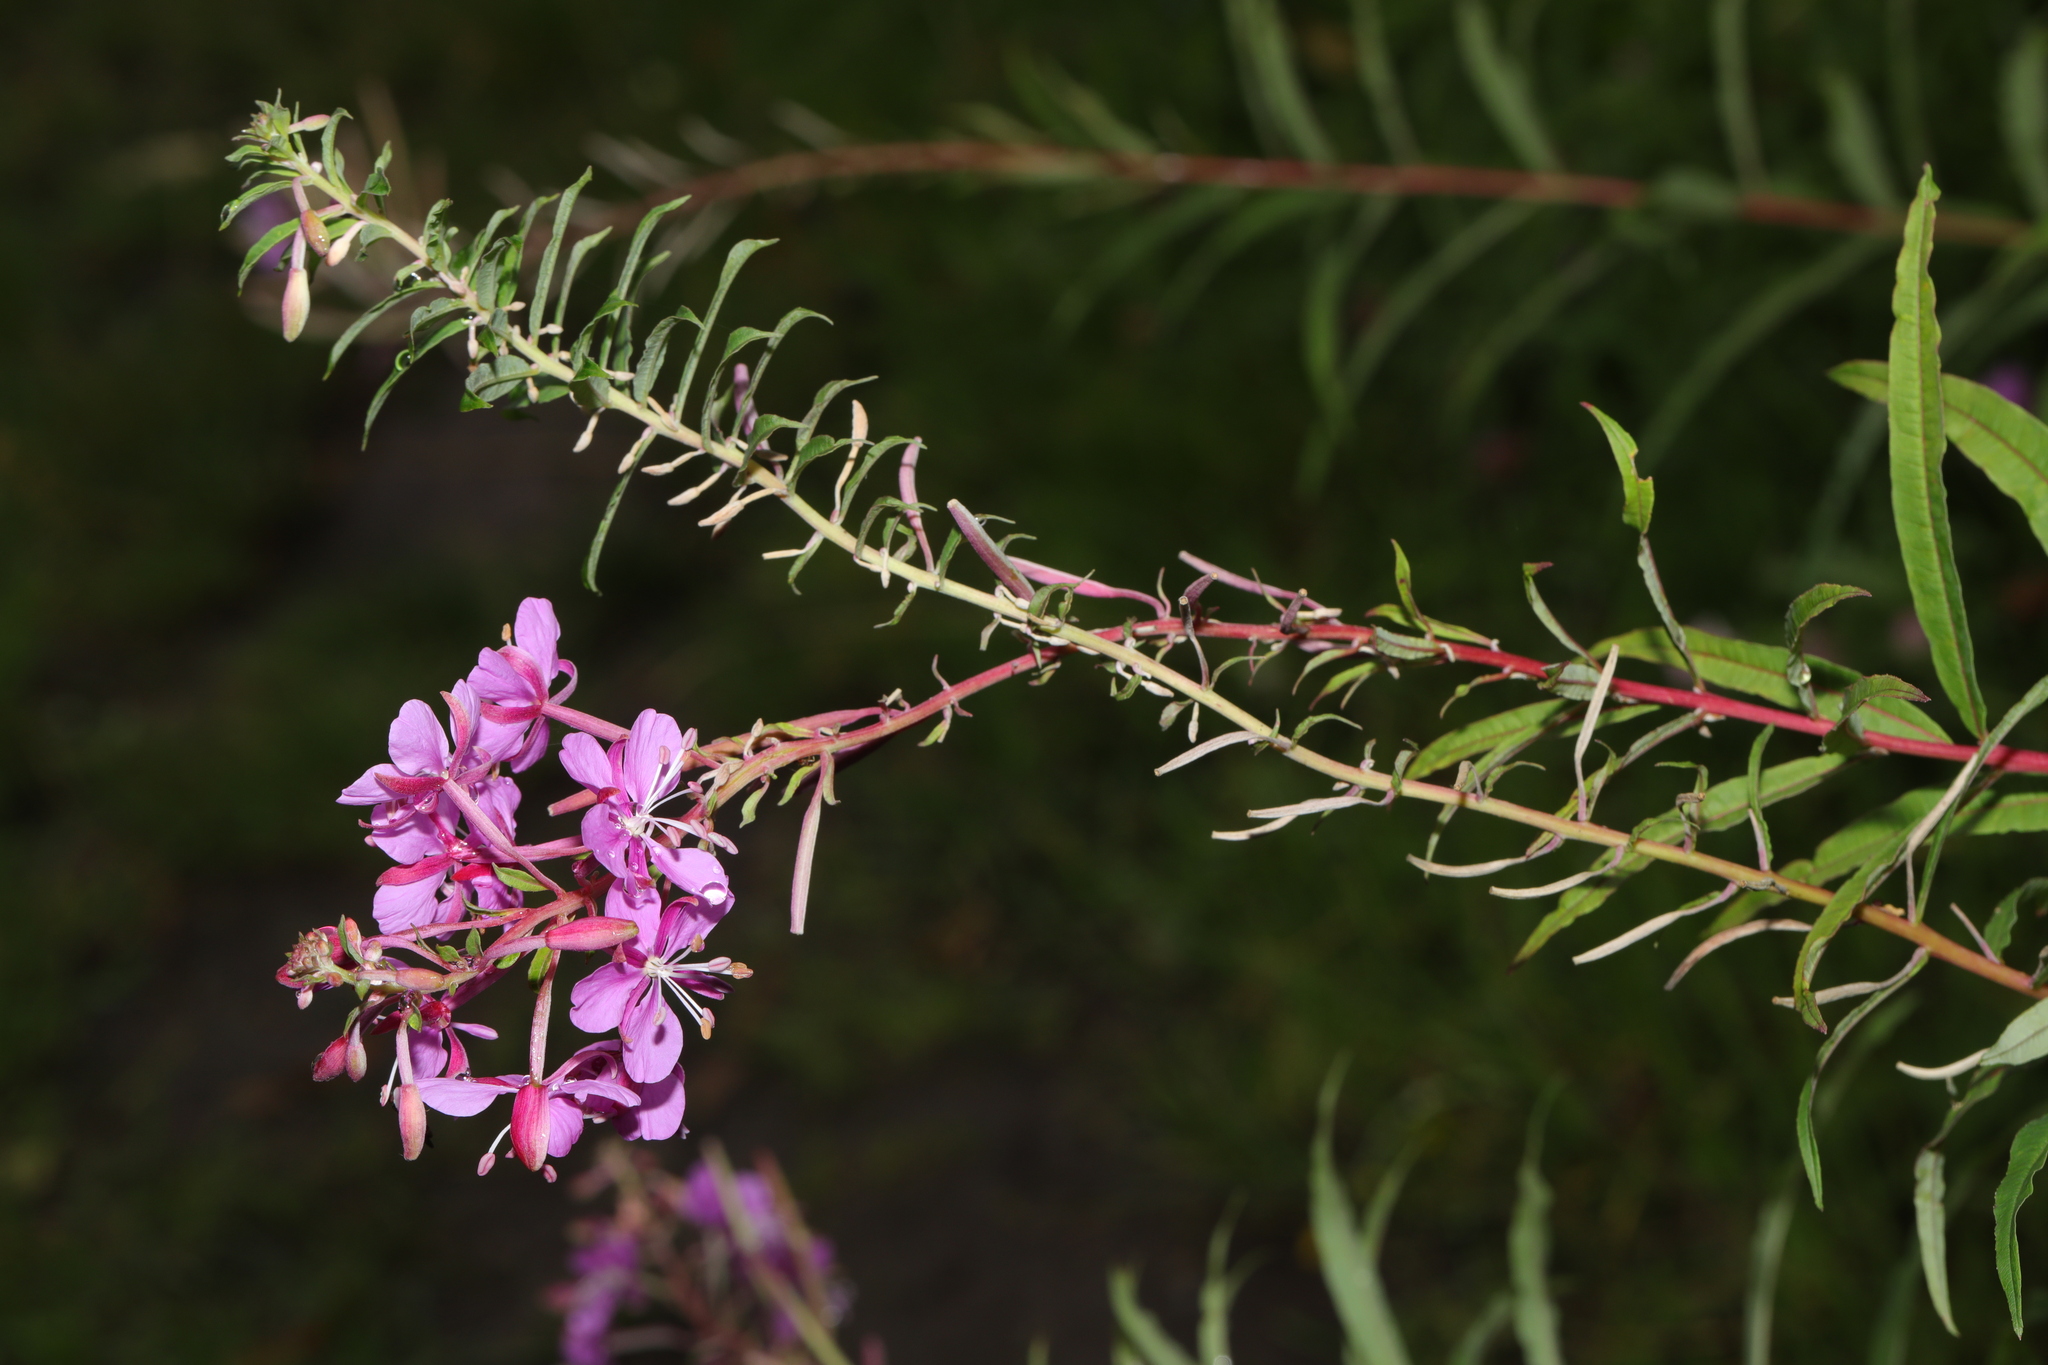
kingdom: Plantae
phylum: Tracheophyta
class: Magnoliopsida
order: Myrtales
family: Onagraceae
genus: Chamaenerion
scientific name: Chamaenerion angustifolium
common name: Fireweed
